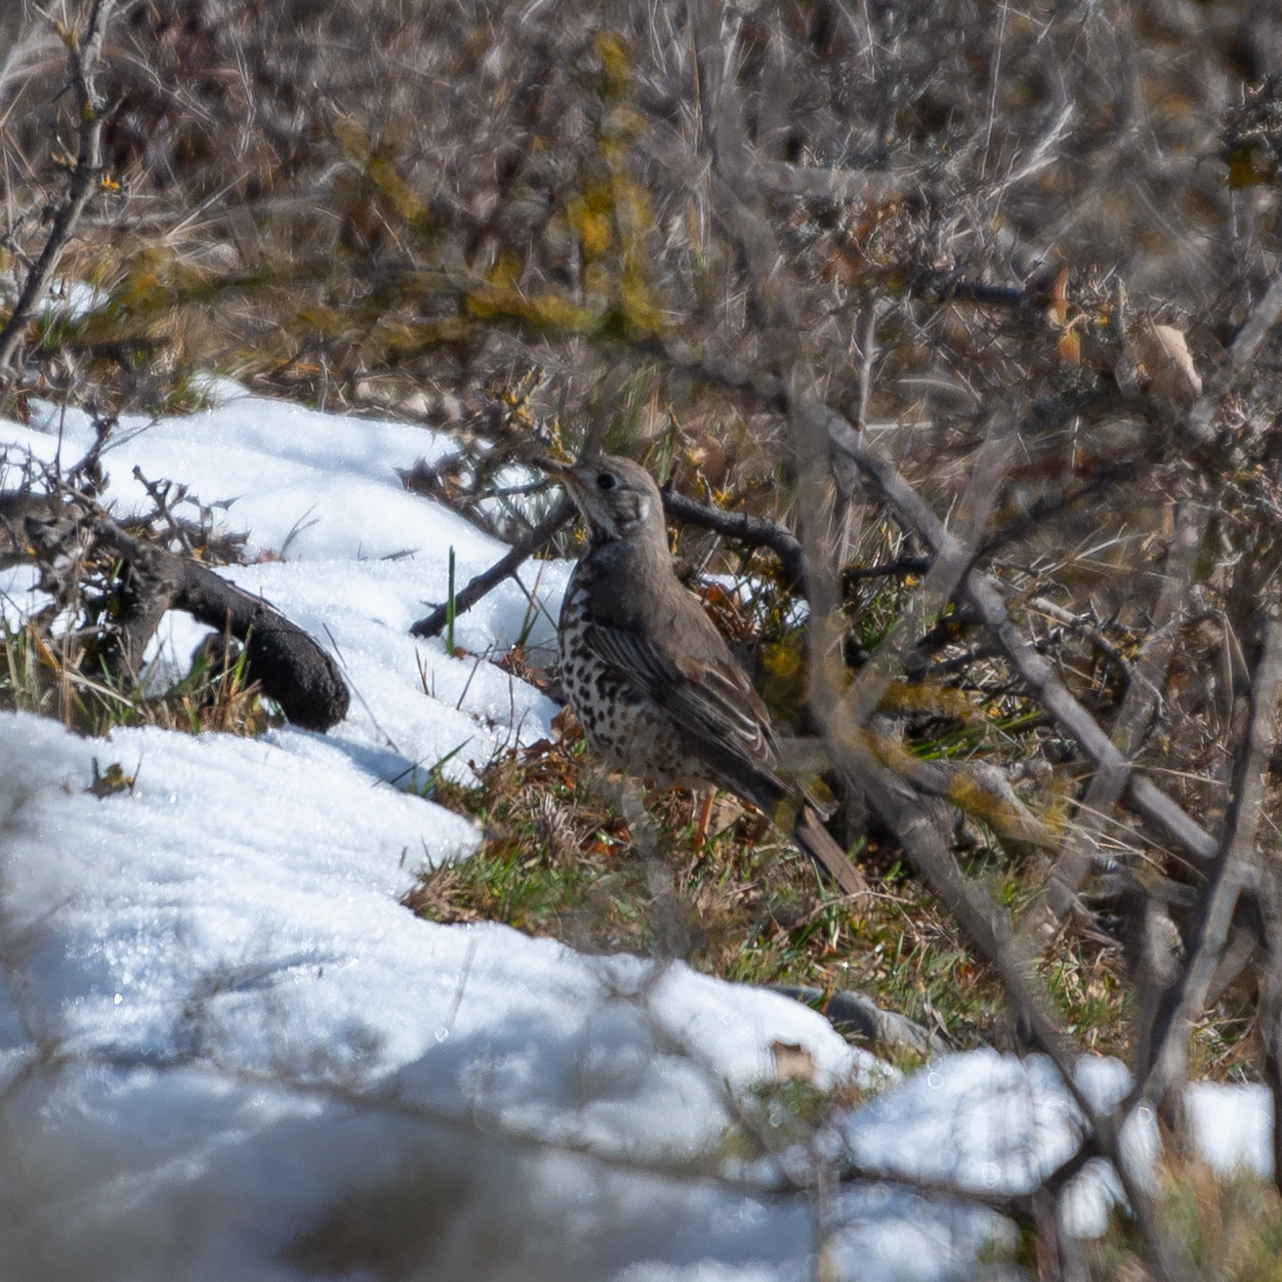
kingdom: Animalia
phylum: Chordata
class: Aves
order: Passeriformes
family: Turdidae
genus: Turdus
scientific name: Turdus viscivorus
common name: Mistle thrush
